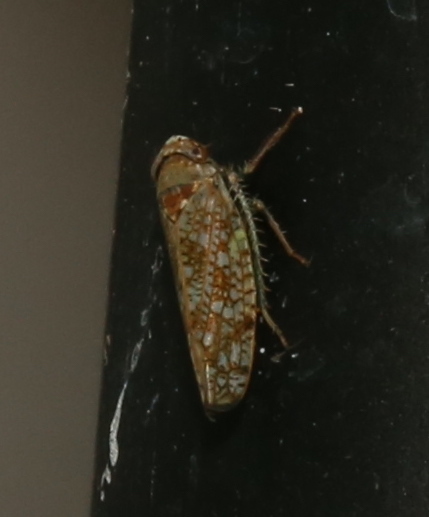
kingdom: Animalia
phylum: Arthropoda
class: Insecta
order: Hemiptera
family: Cicadellidae
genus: Orientus
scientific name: Orientus ishidae
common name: Japanese leafhopper
